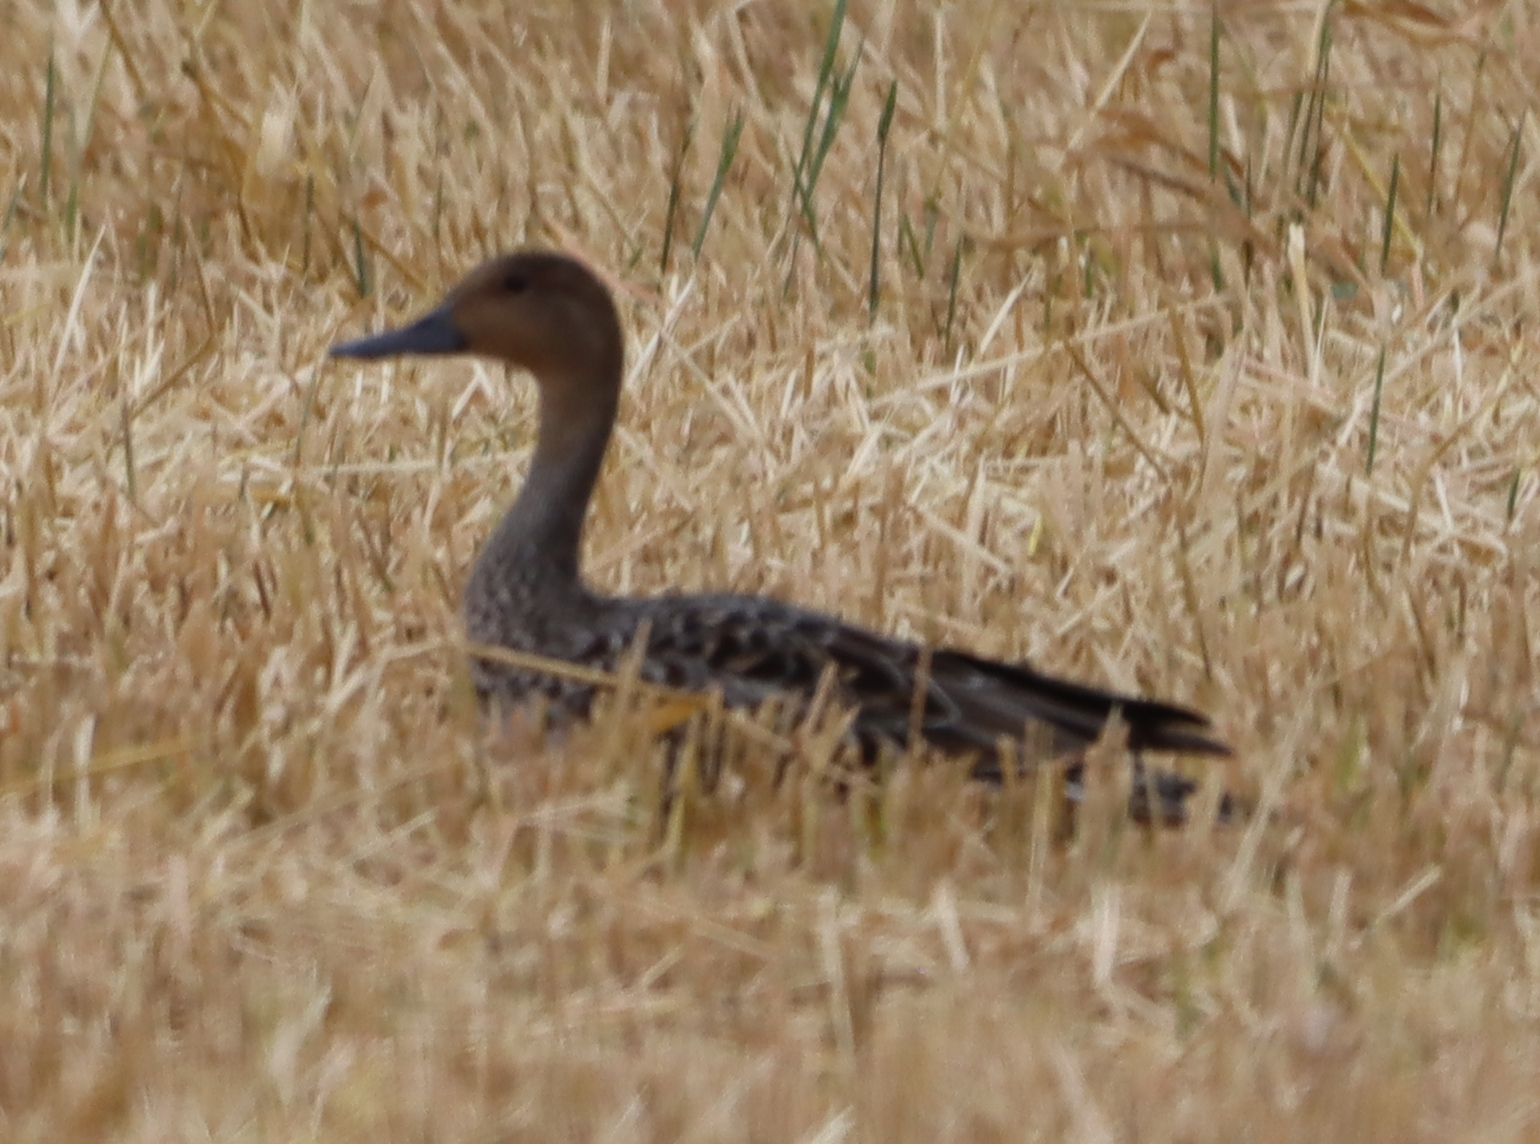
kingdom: Animalia
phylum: Chordata
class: Aves
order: Anseriformes
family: Anatidae
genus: Anas
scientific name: Anas acuta
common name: Northern pintail
